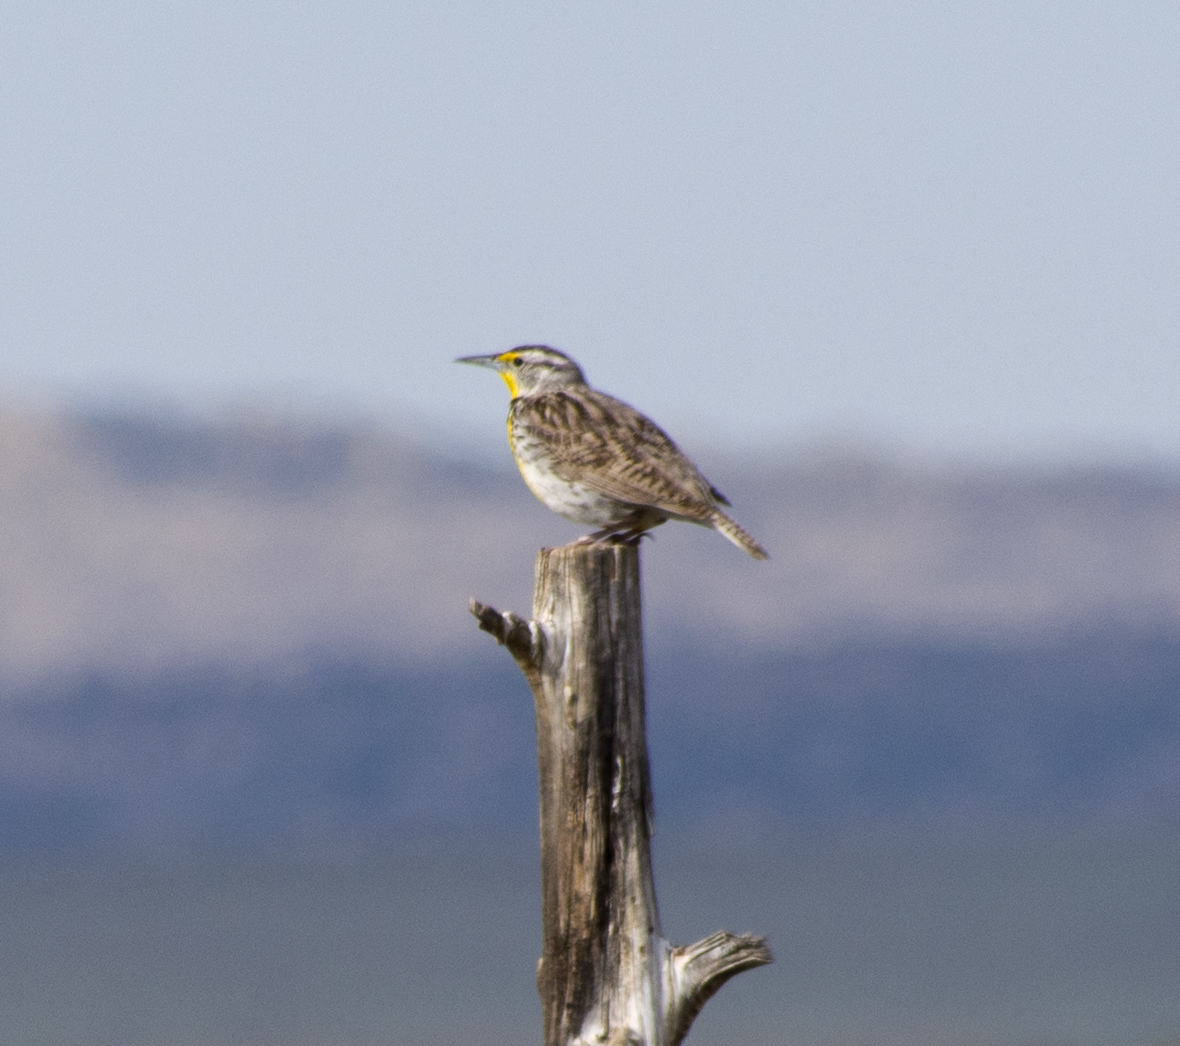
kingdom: Animalia
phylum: Chordata
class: Aves
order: Passeriformes
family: Icteridae
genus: Sturnella
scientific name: Sturnella neglecta
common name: Western meadowlark
